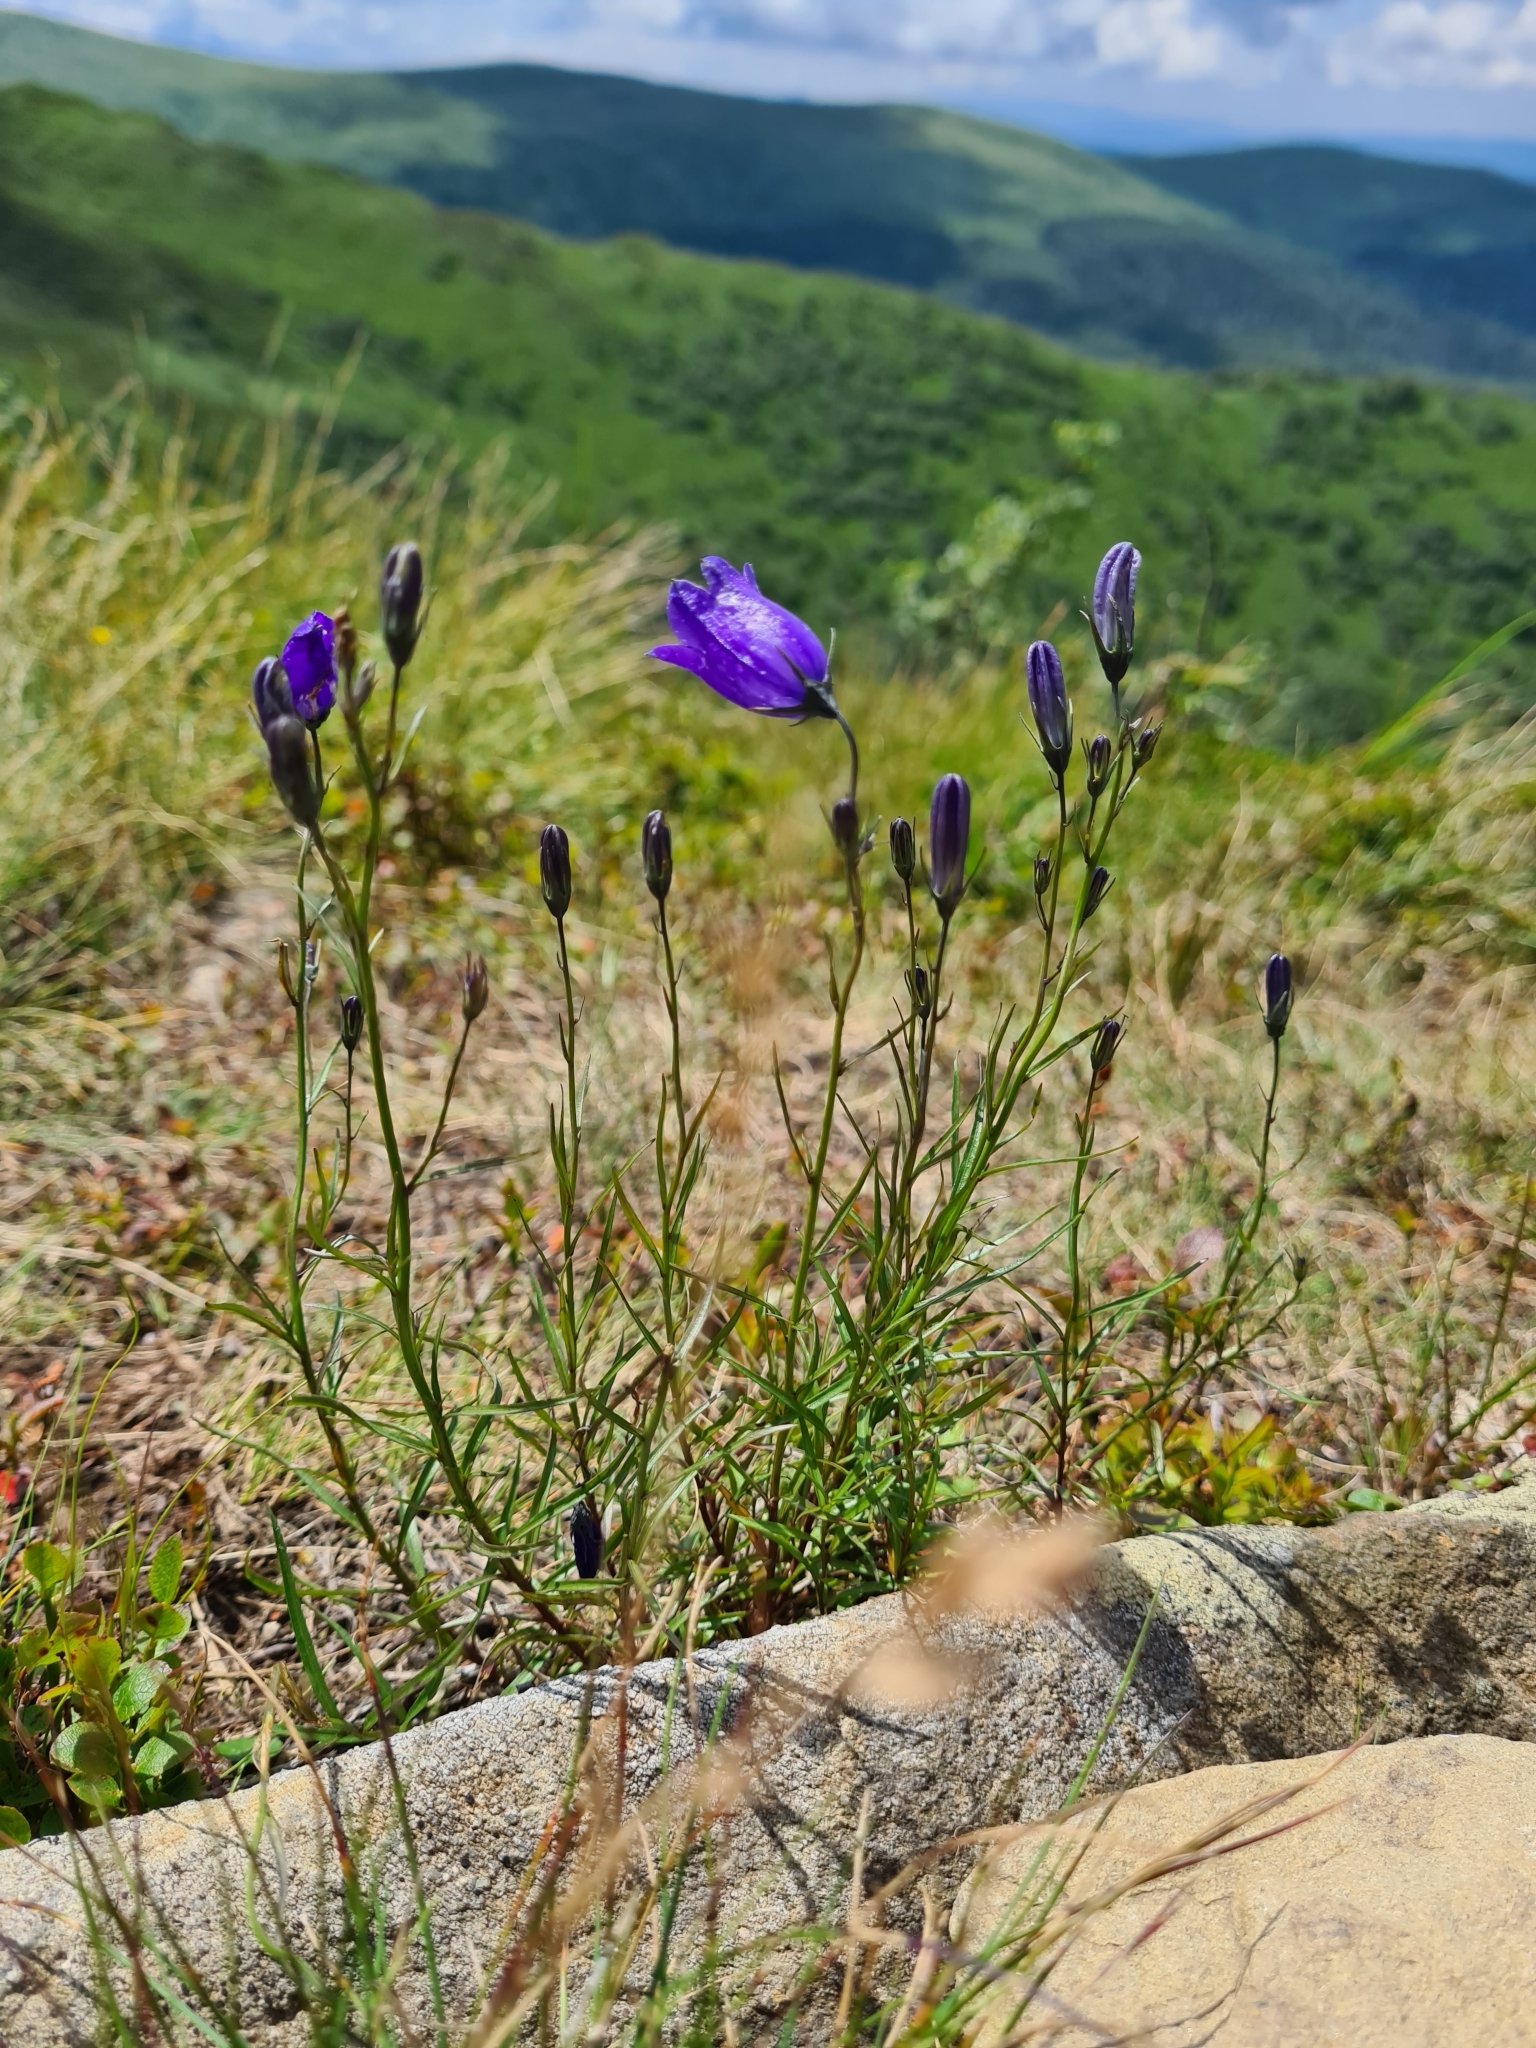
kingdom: Plantae
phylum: Tracheophyta
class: Magnoliopsida
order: Asterales
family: Campanulaceae
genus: Campanula
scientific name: Campanula rotundifolia
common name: Harebell
